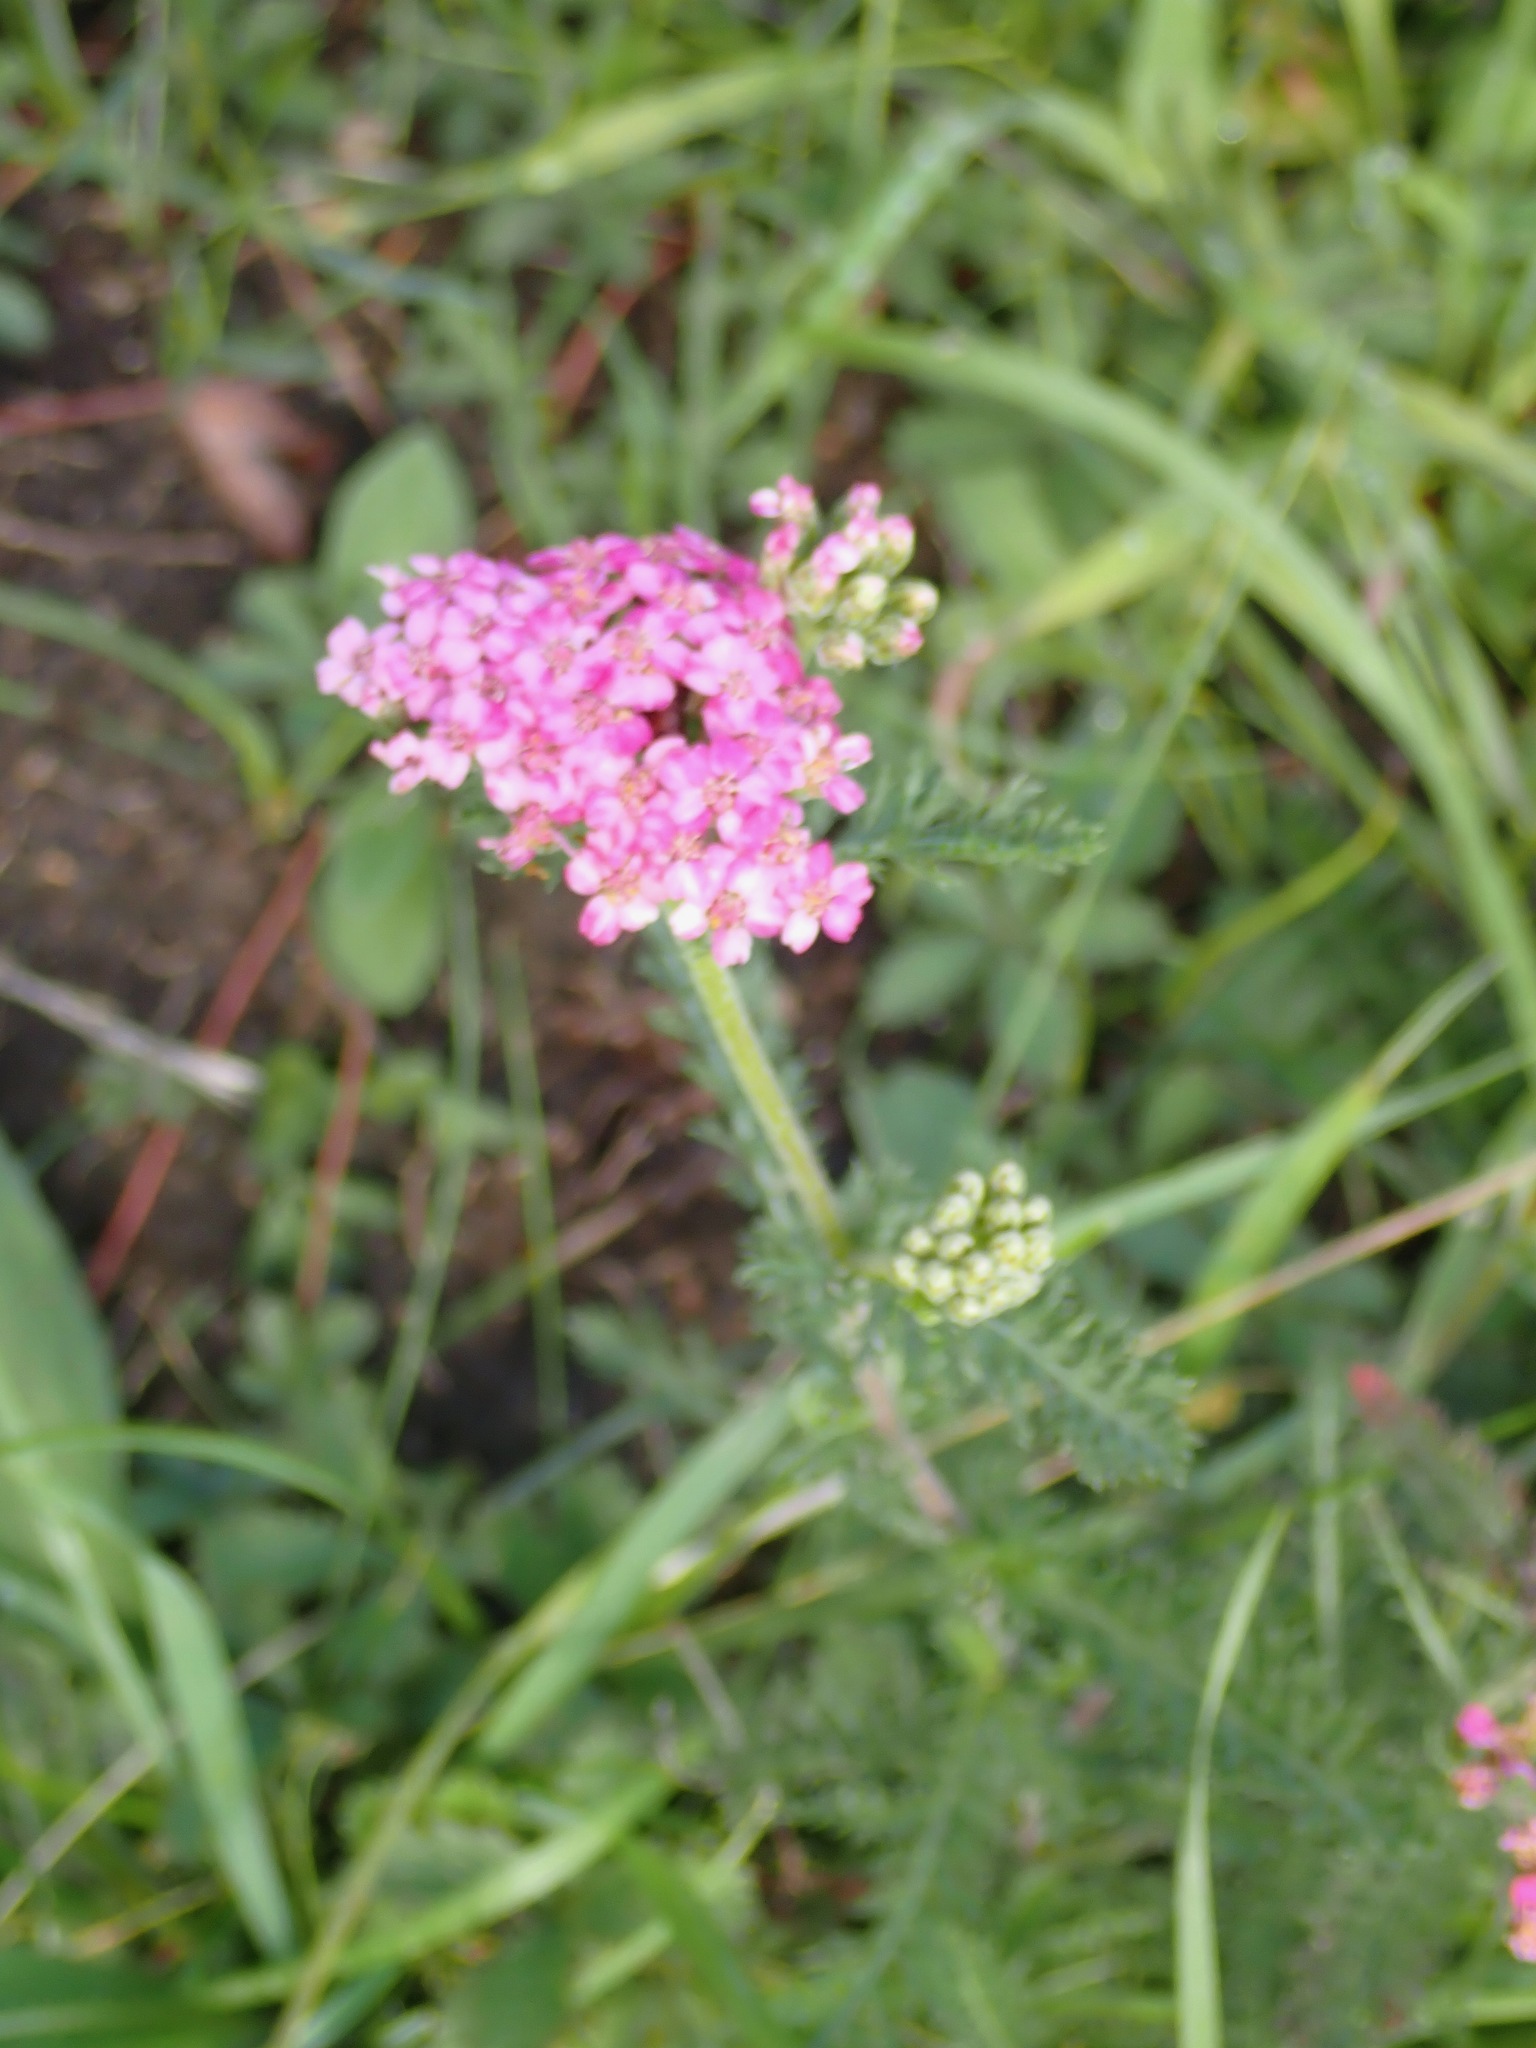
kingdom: Plantae
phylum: Tracheophyta
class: Magnoliopsida
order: Asterales
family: Asteraceae
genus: Achillea
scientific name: Achillea millefolium
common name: Yarrow
